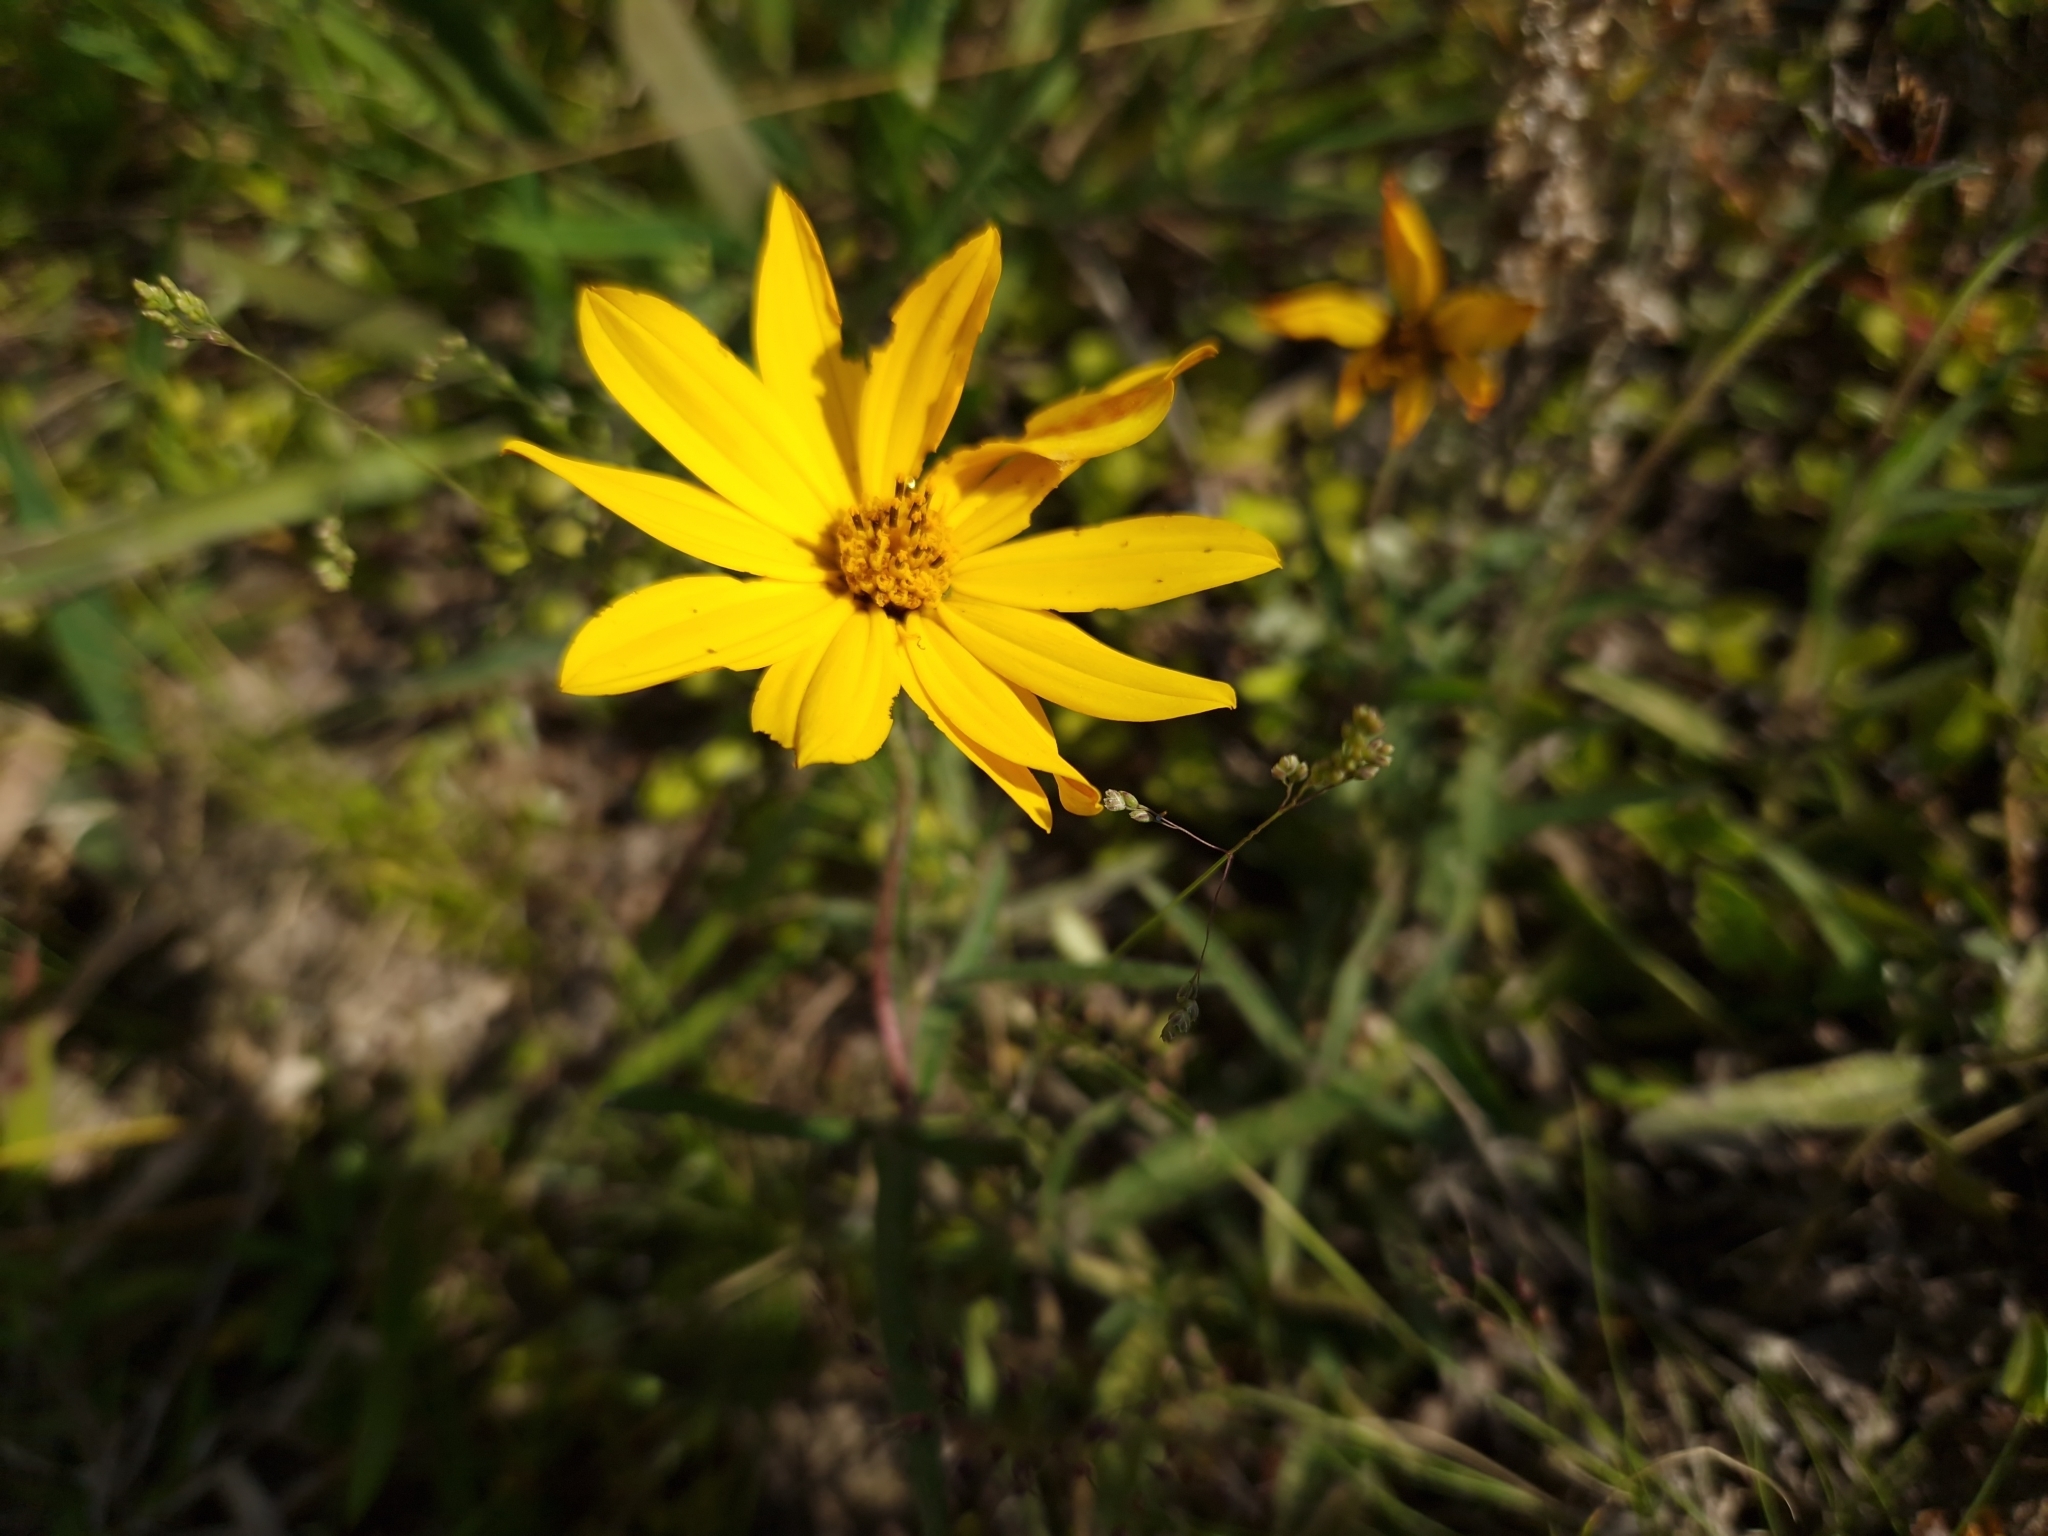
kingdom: Plantae
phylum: Tracheophyta
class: Magnoliopsida
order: Asterales
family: Asteraceae
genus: Wedelia
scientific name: Wedelia montevidensis
